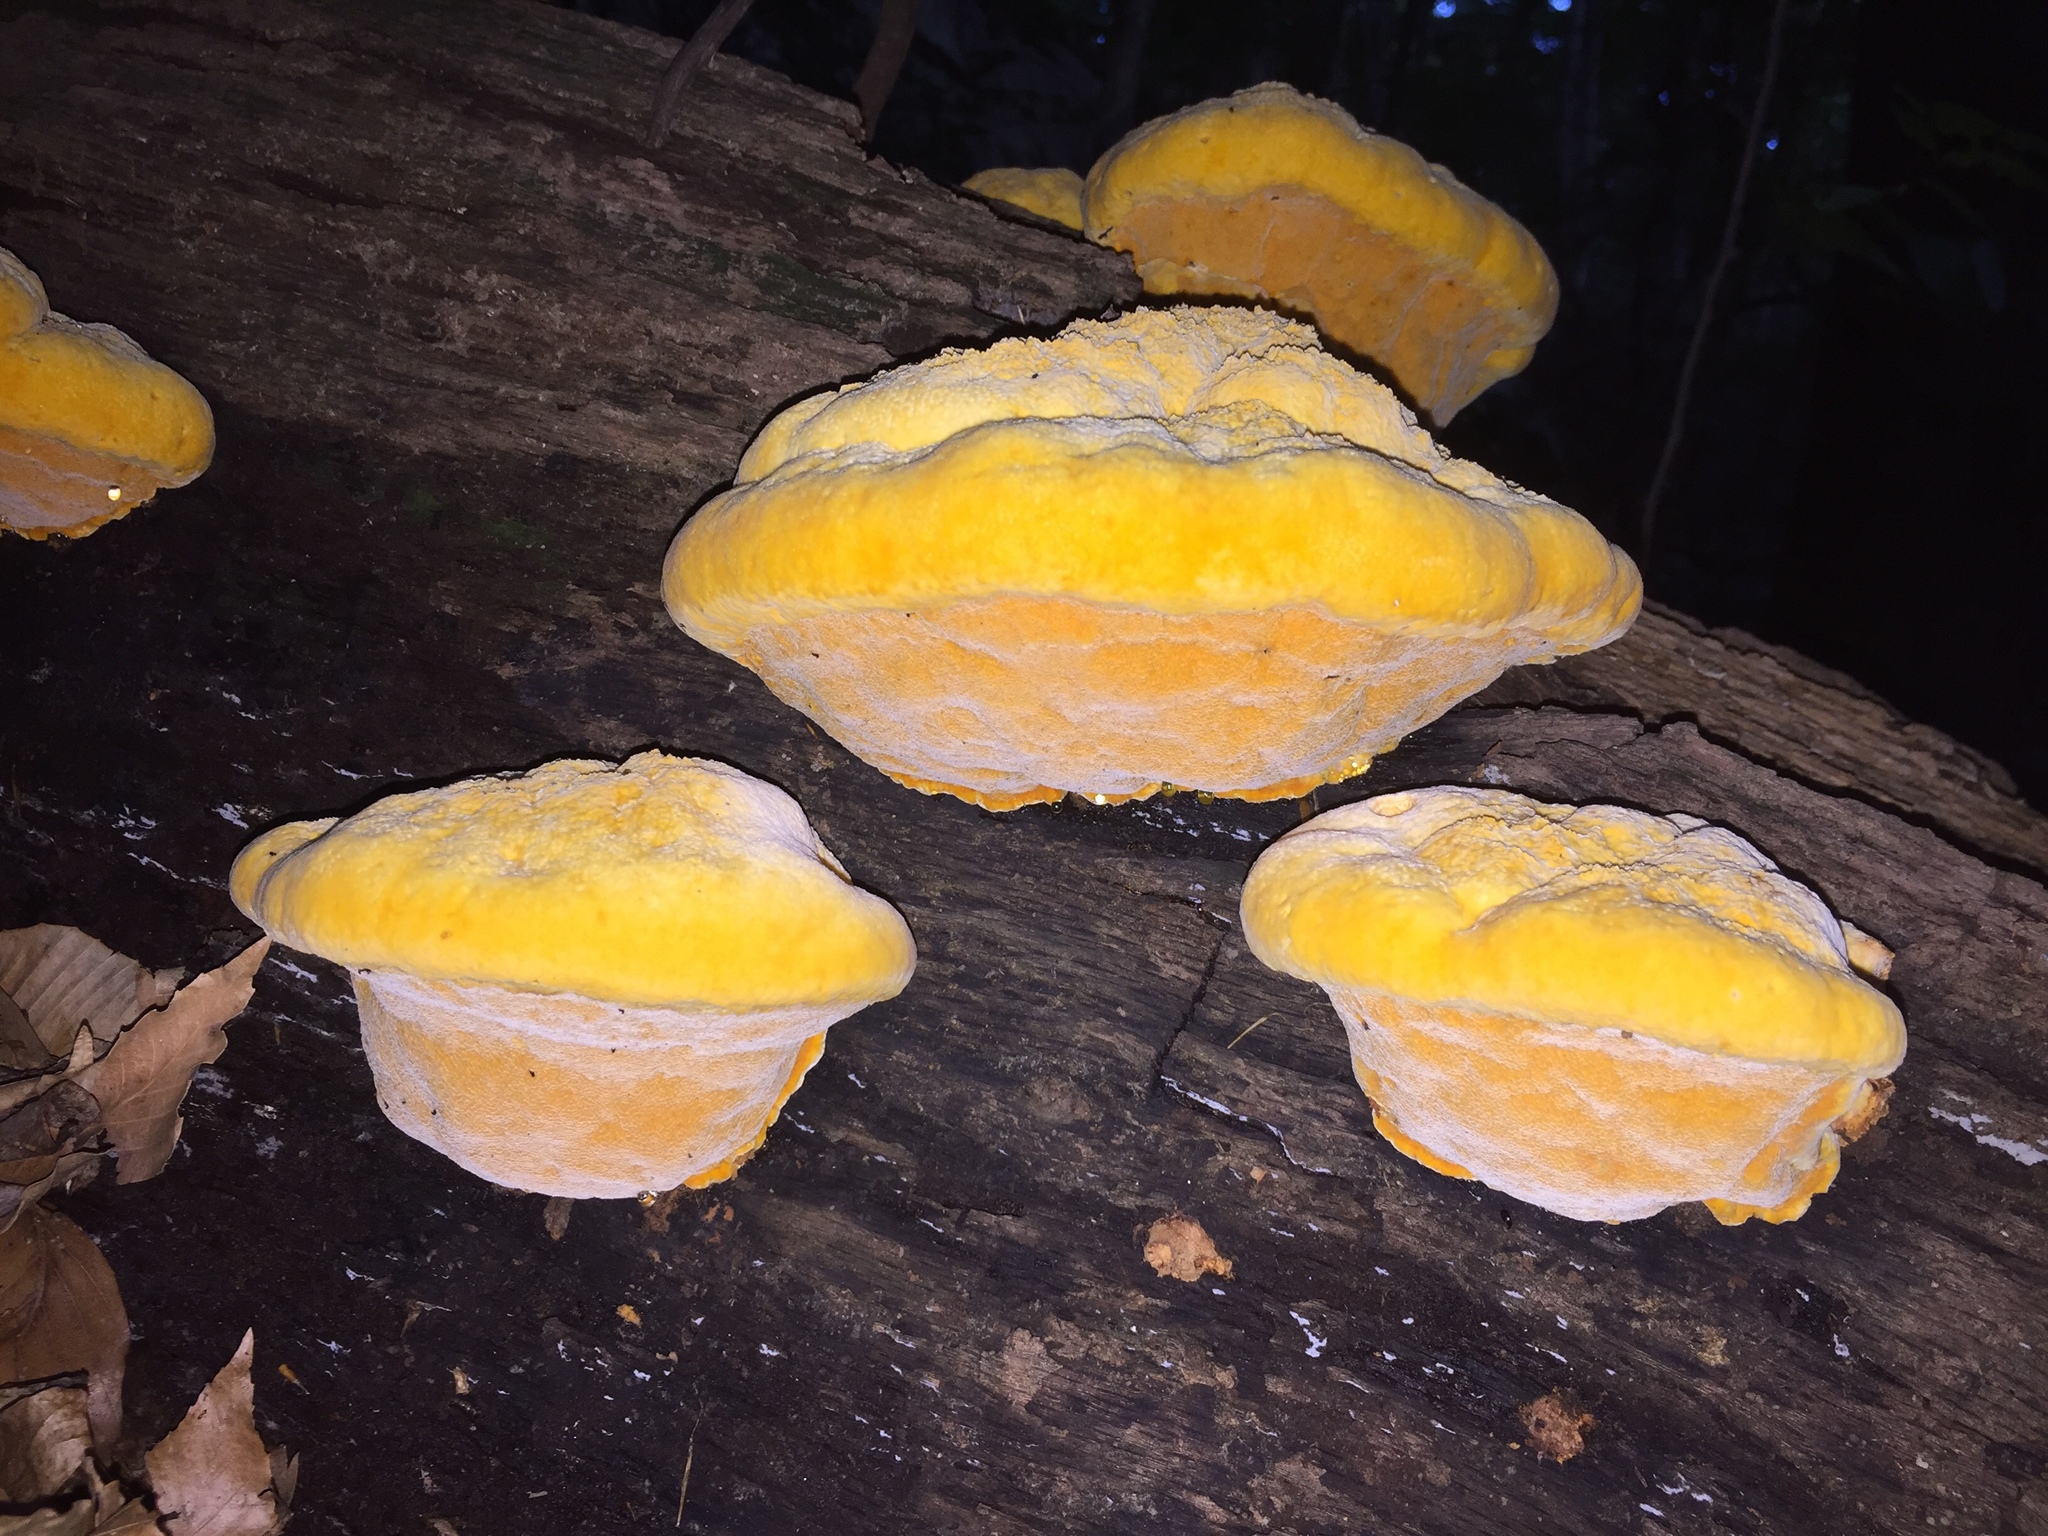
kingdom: Fungi
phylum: Basidiomycota
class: Agaricomycetes
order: Polyporales
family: Phanerochaetaceae
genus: Hapalopilus
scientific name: Hapalopilus croceus
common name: Orange polypore
